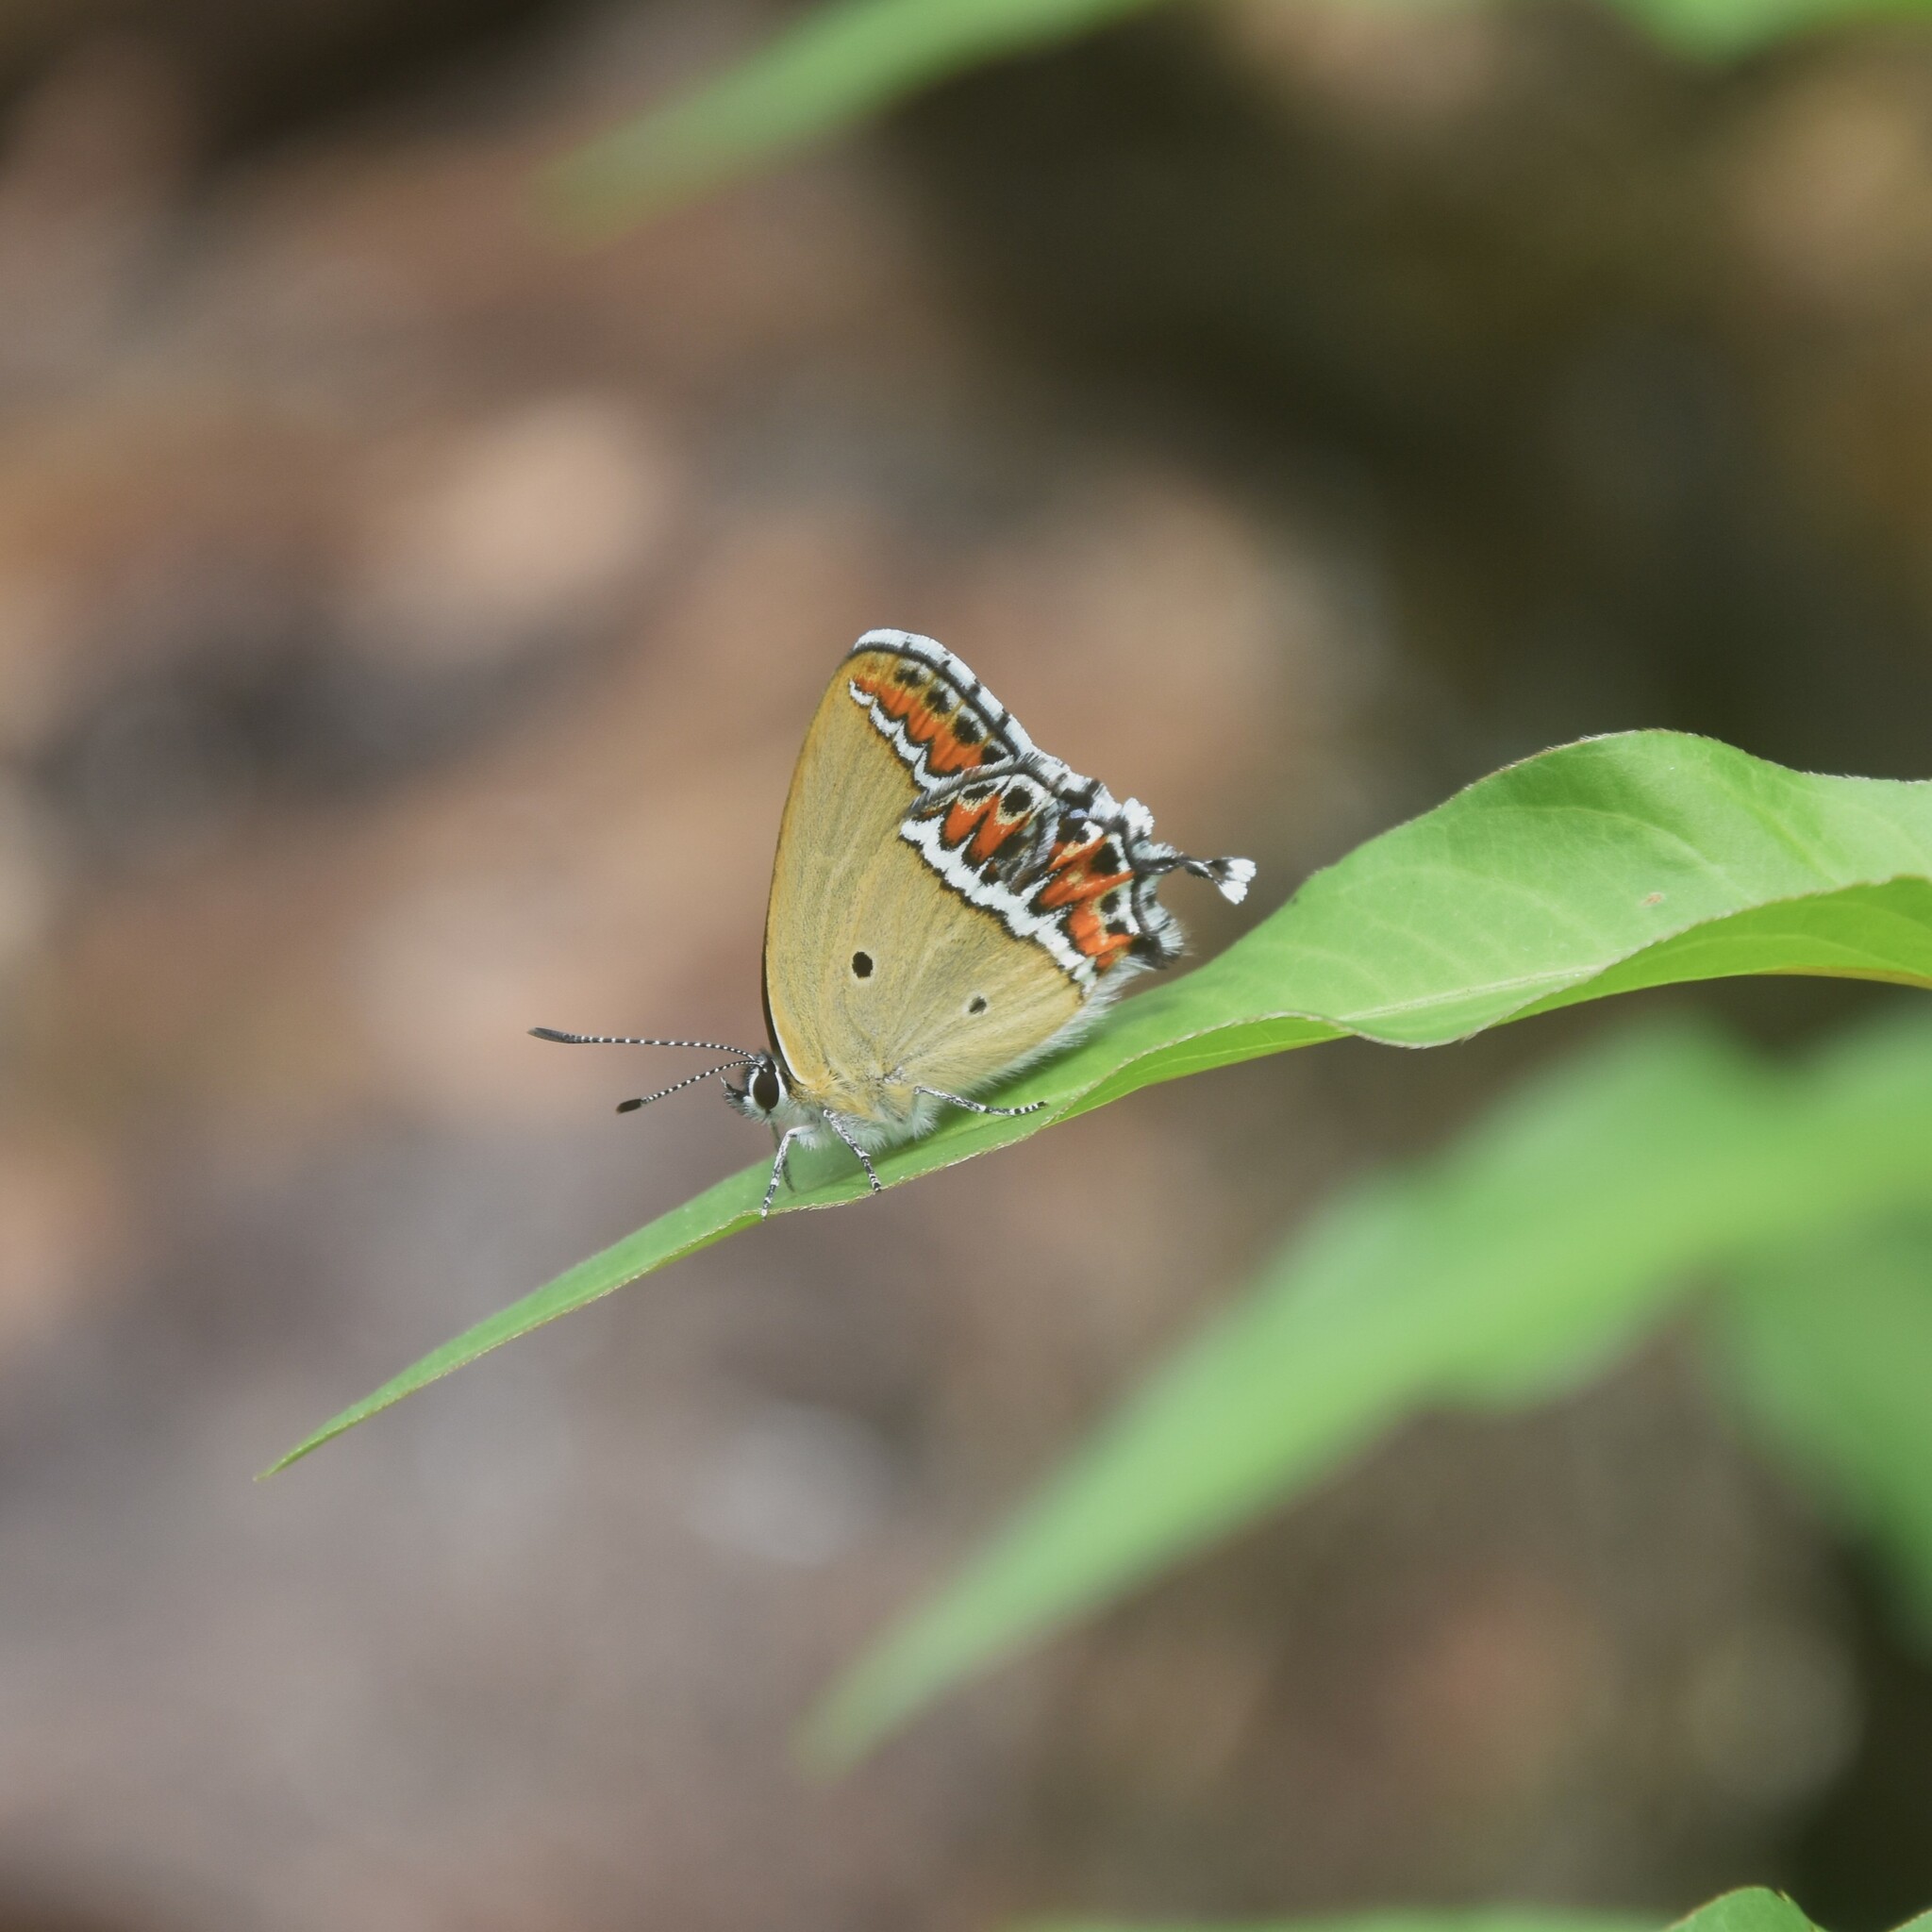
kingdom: Animalia
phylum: Arthropoda
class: Insecta
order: Lepidoptera
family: Lycaenidae
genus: Heliophorus
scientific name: Heliophorus sena
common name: Sorrel sapphire
